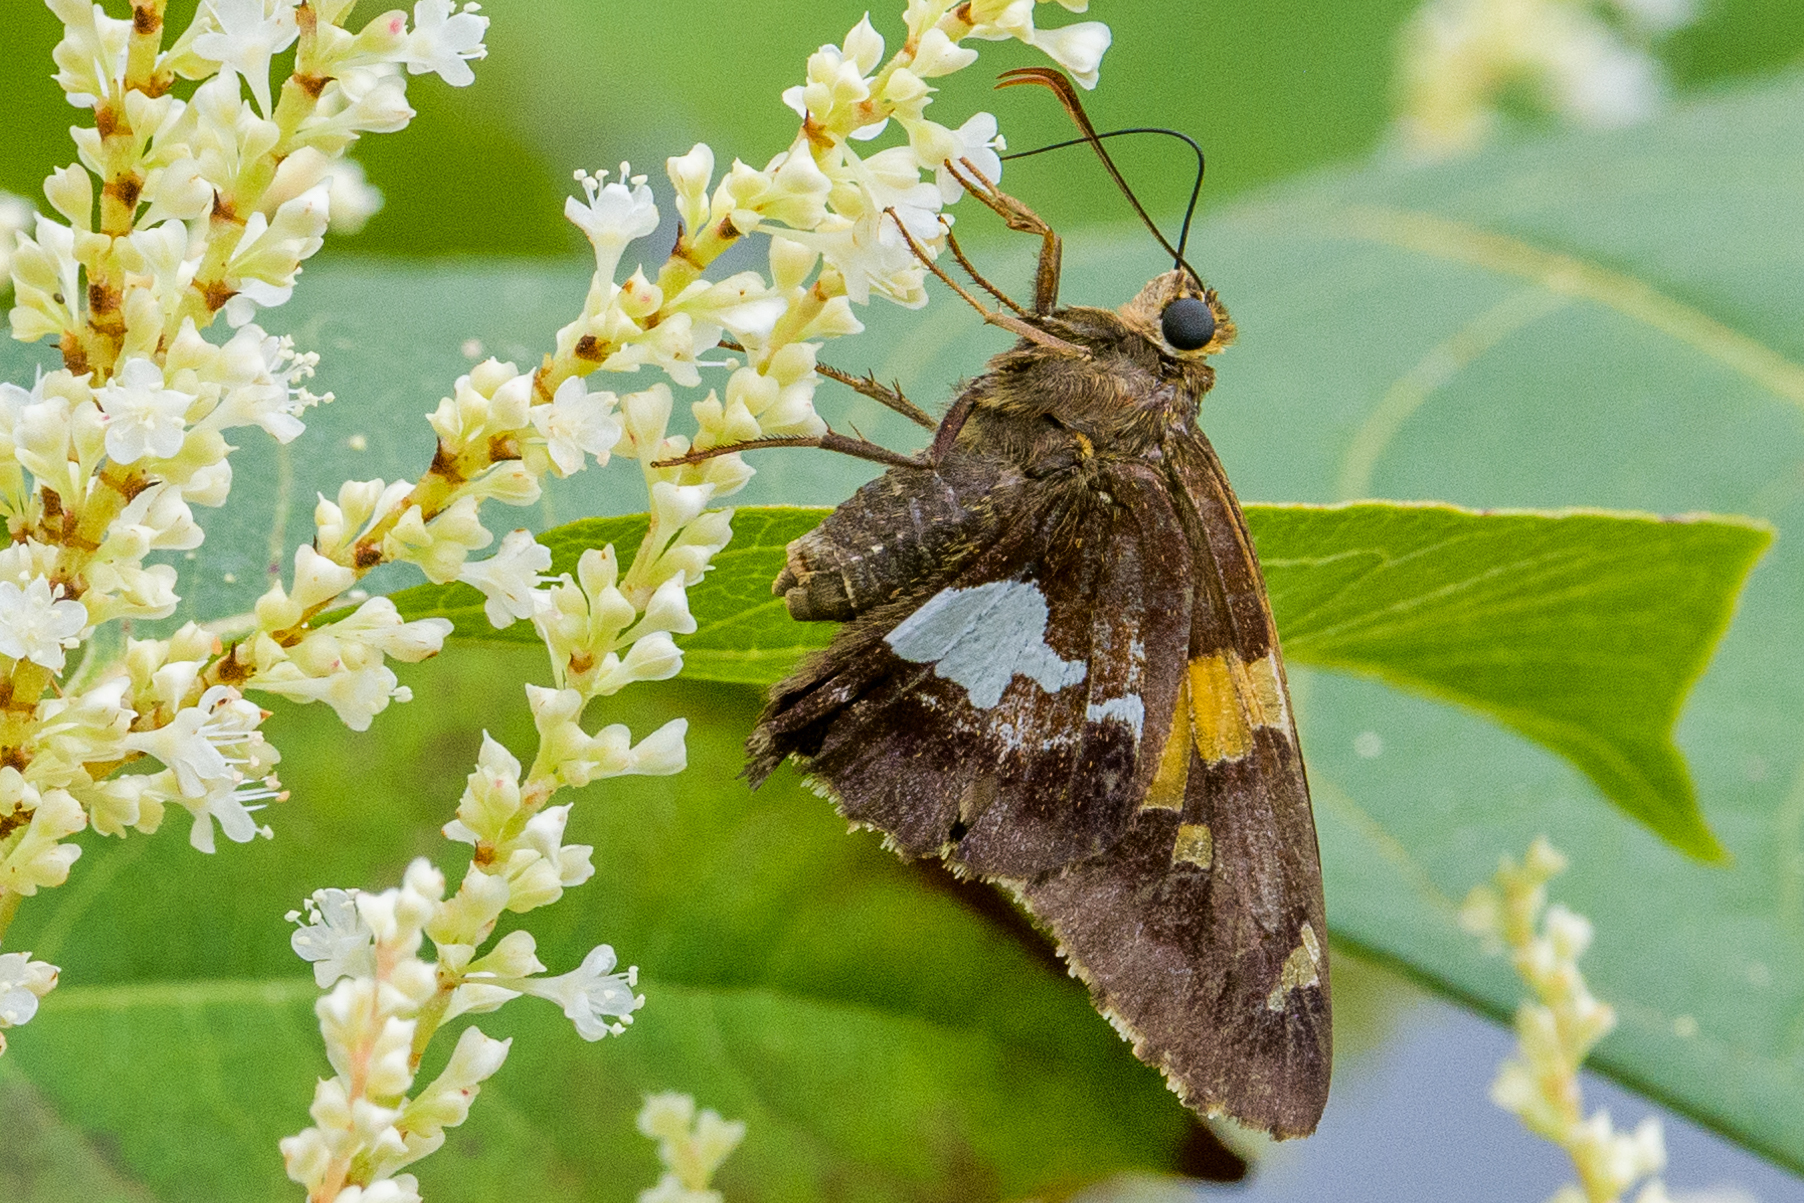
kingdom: Animalia
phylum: Arthropoda
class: Insecta
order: Lepidoptera
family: Hesperiidae
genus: Epargyreus
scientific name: Epargyreus clarus
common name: Silver-spotted skipper
